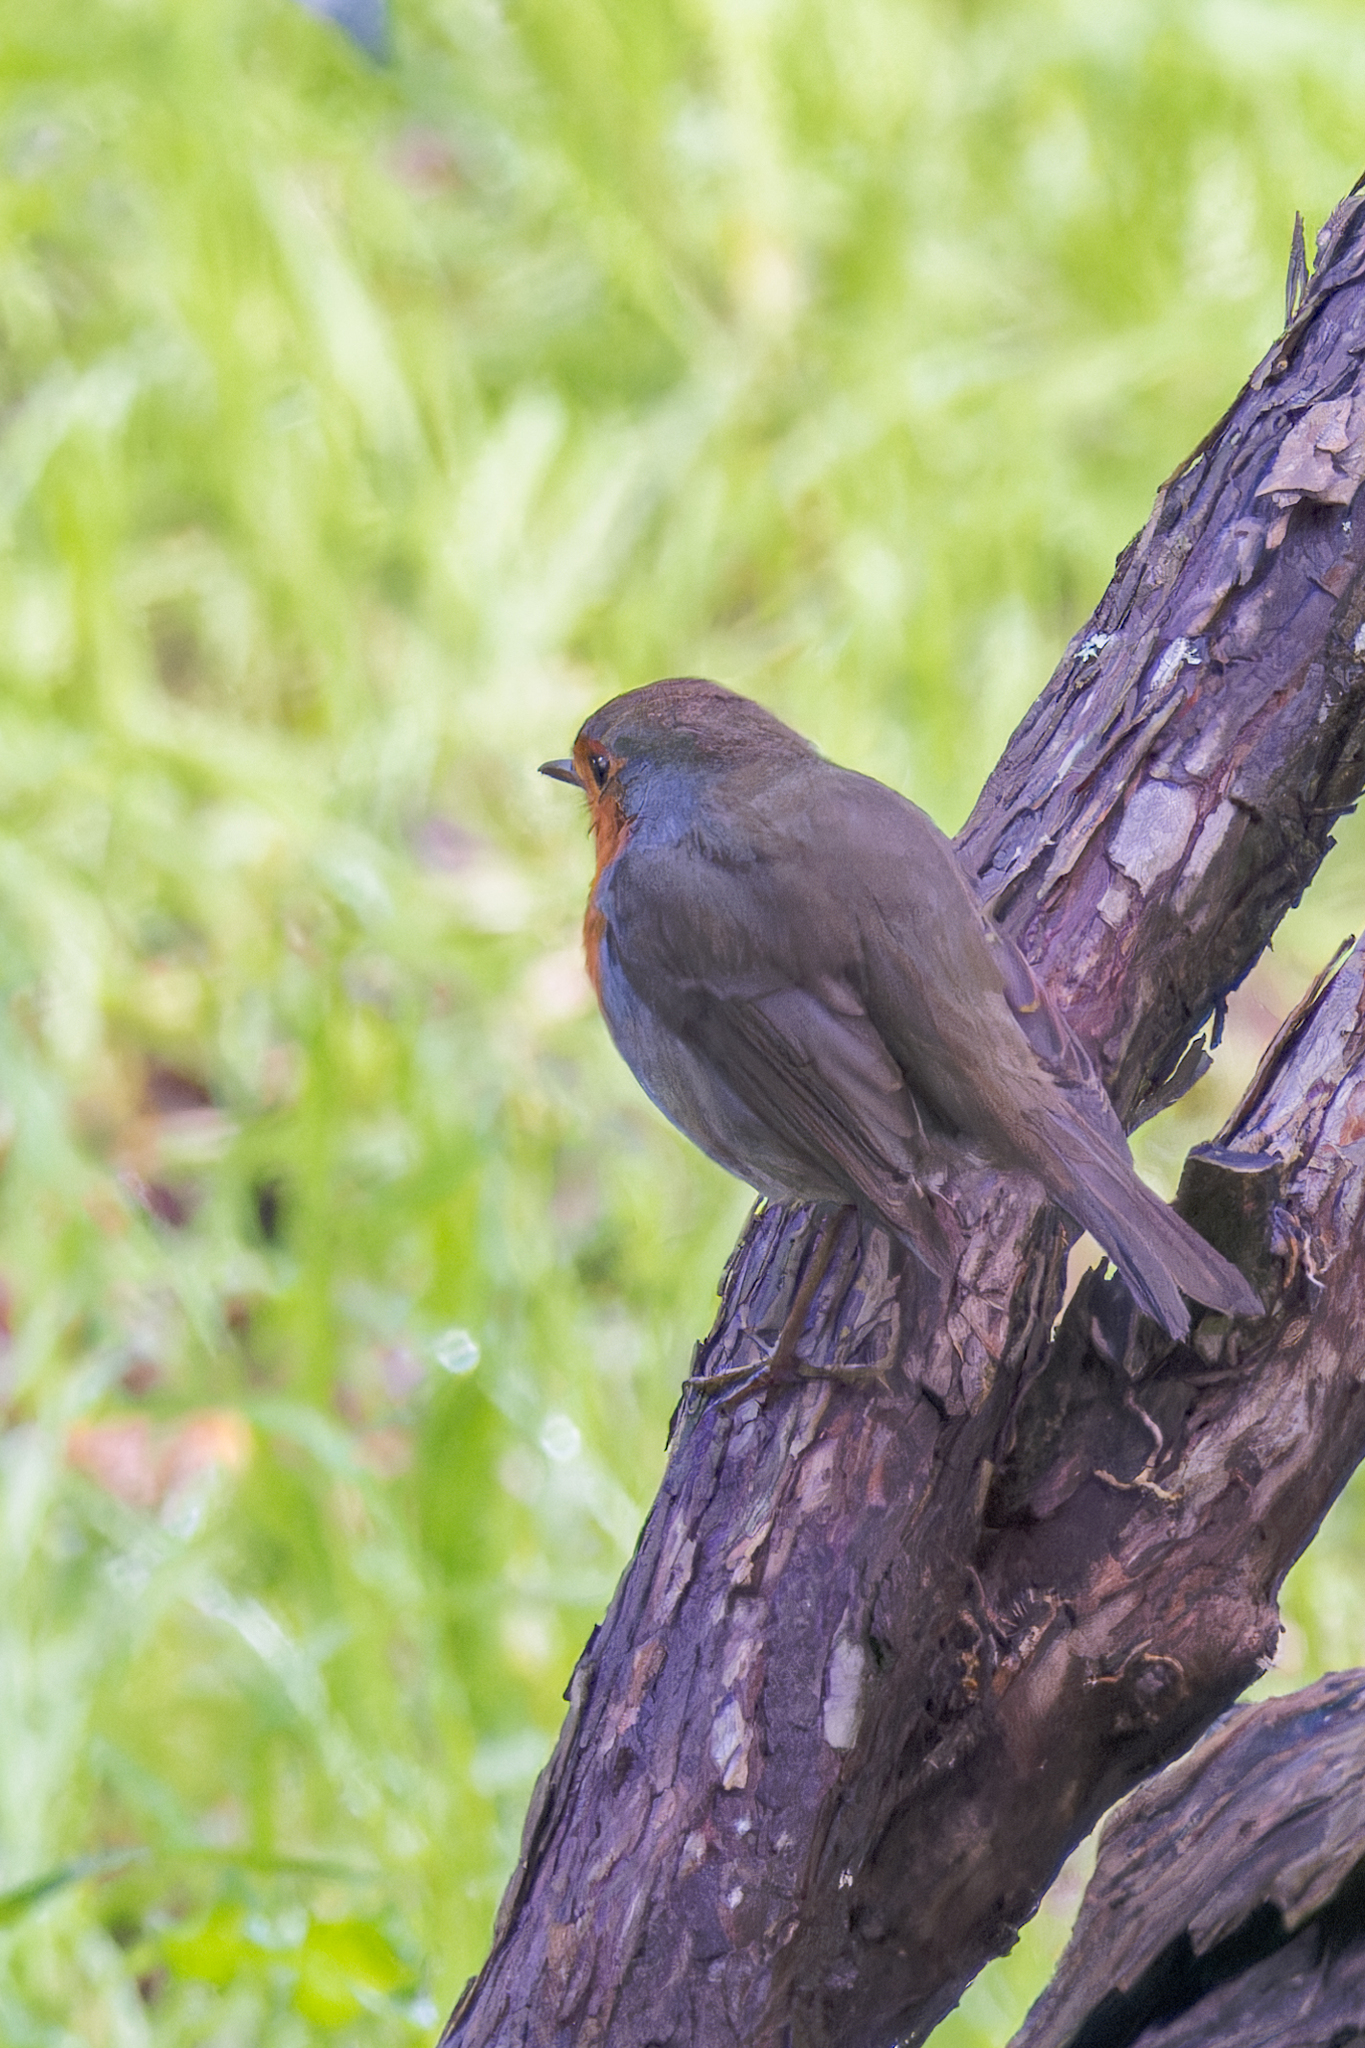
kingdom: Animalia
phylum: Chordata
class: Aves
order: Passeriformes
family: Muscicapidae
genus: Erithacus
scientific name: Erithacus rubecula
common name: European robin
